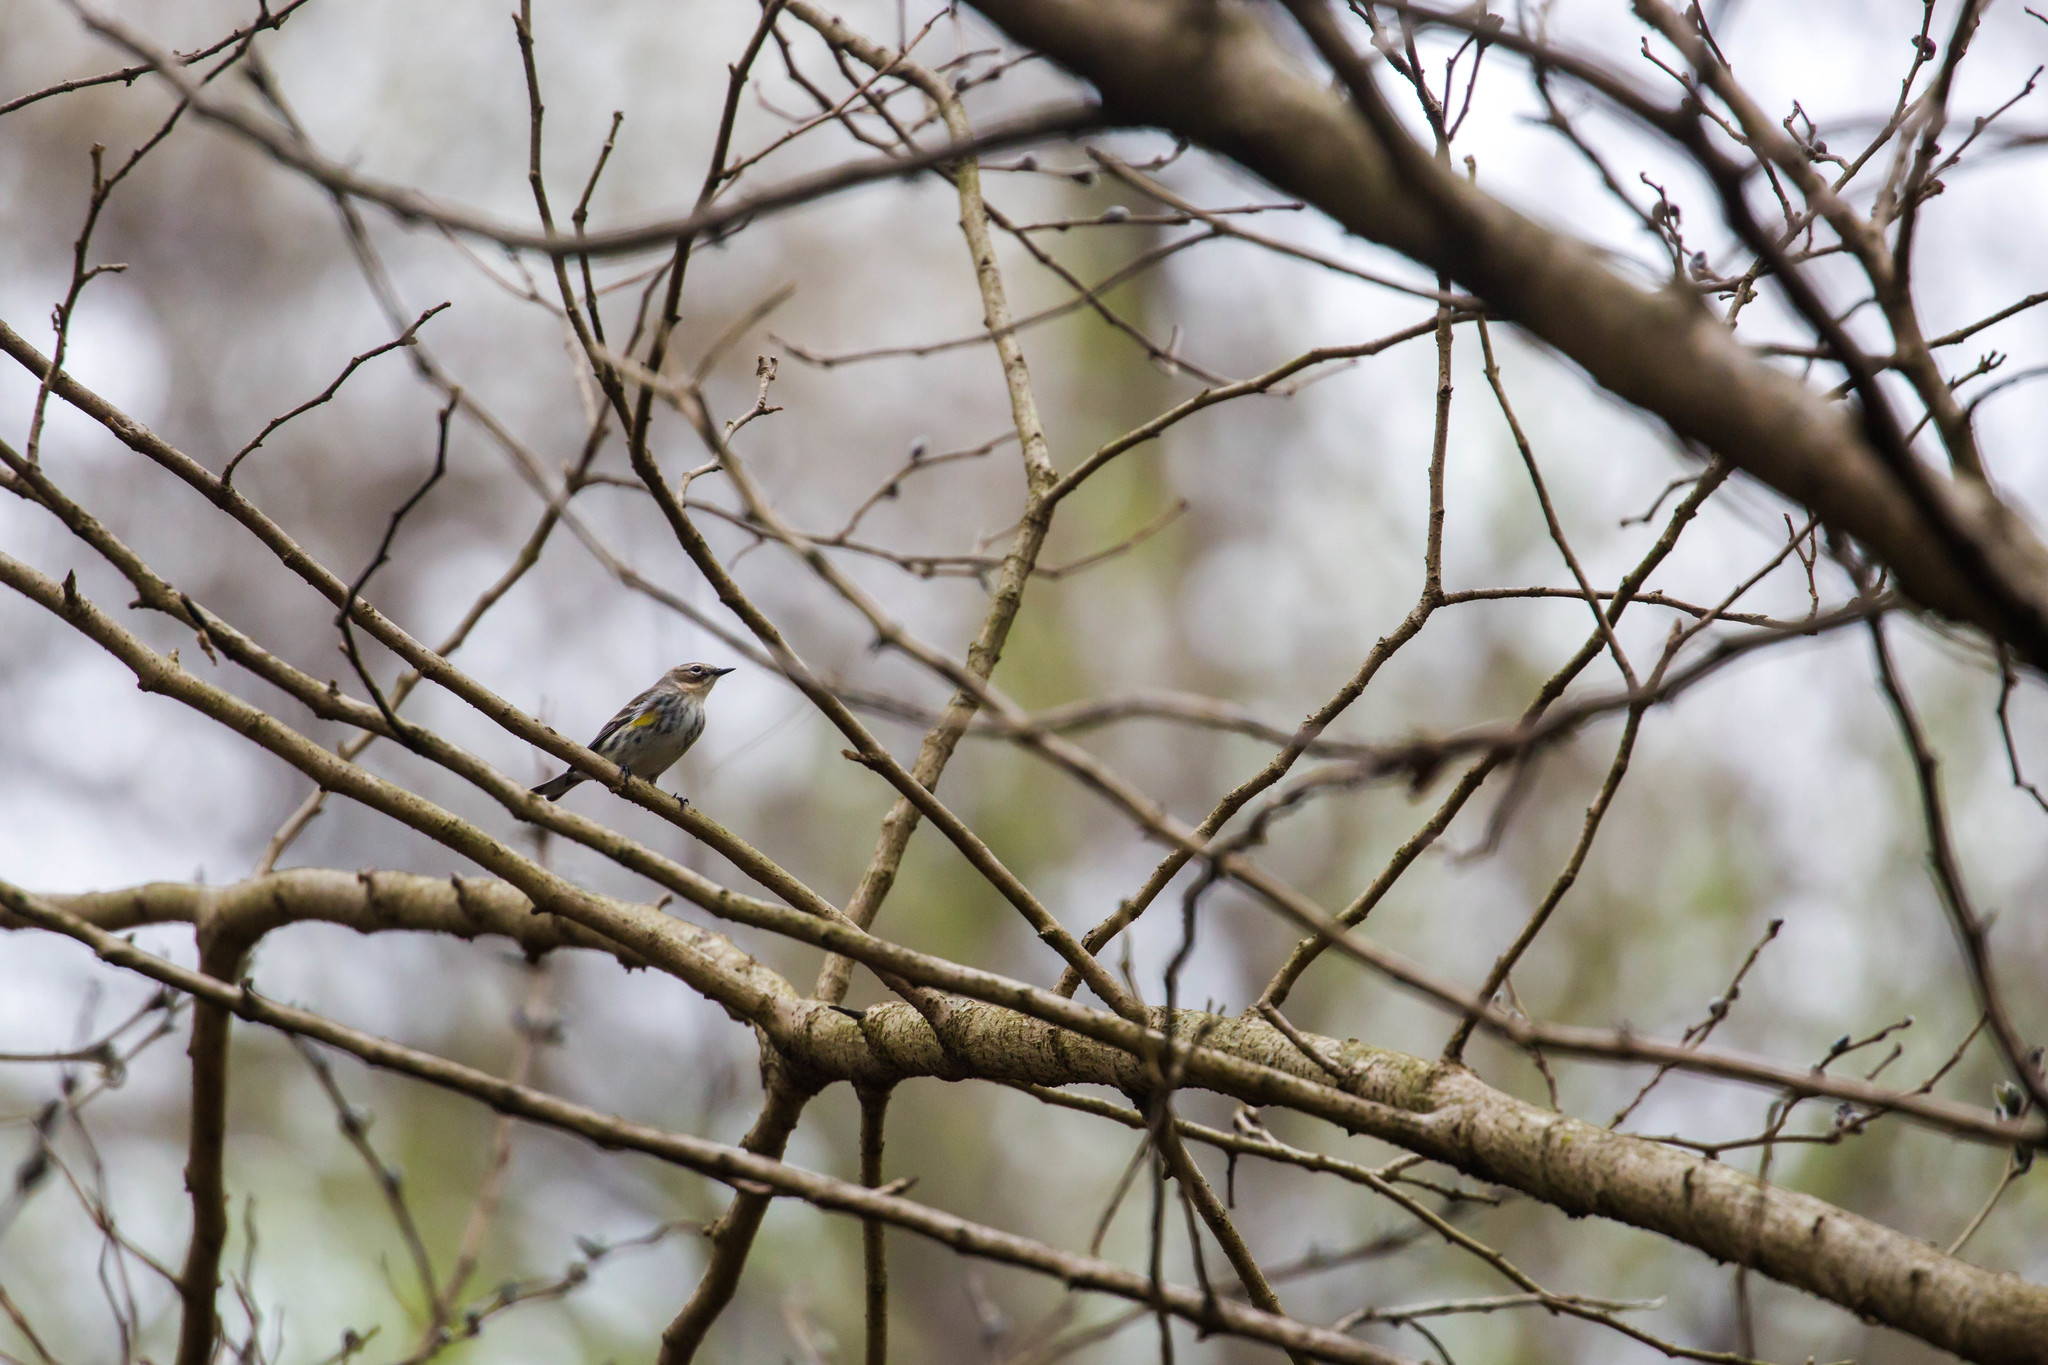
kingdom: Animalia
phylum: Chordata
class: Aves
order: Passeriformes
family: Parulidae
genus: Setophaga
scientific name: Setophaga coronata
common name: Myrtle warbler
